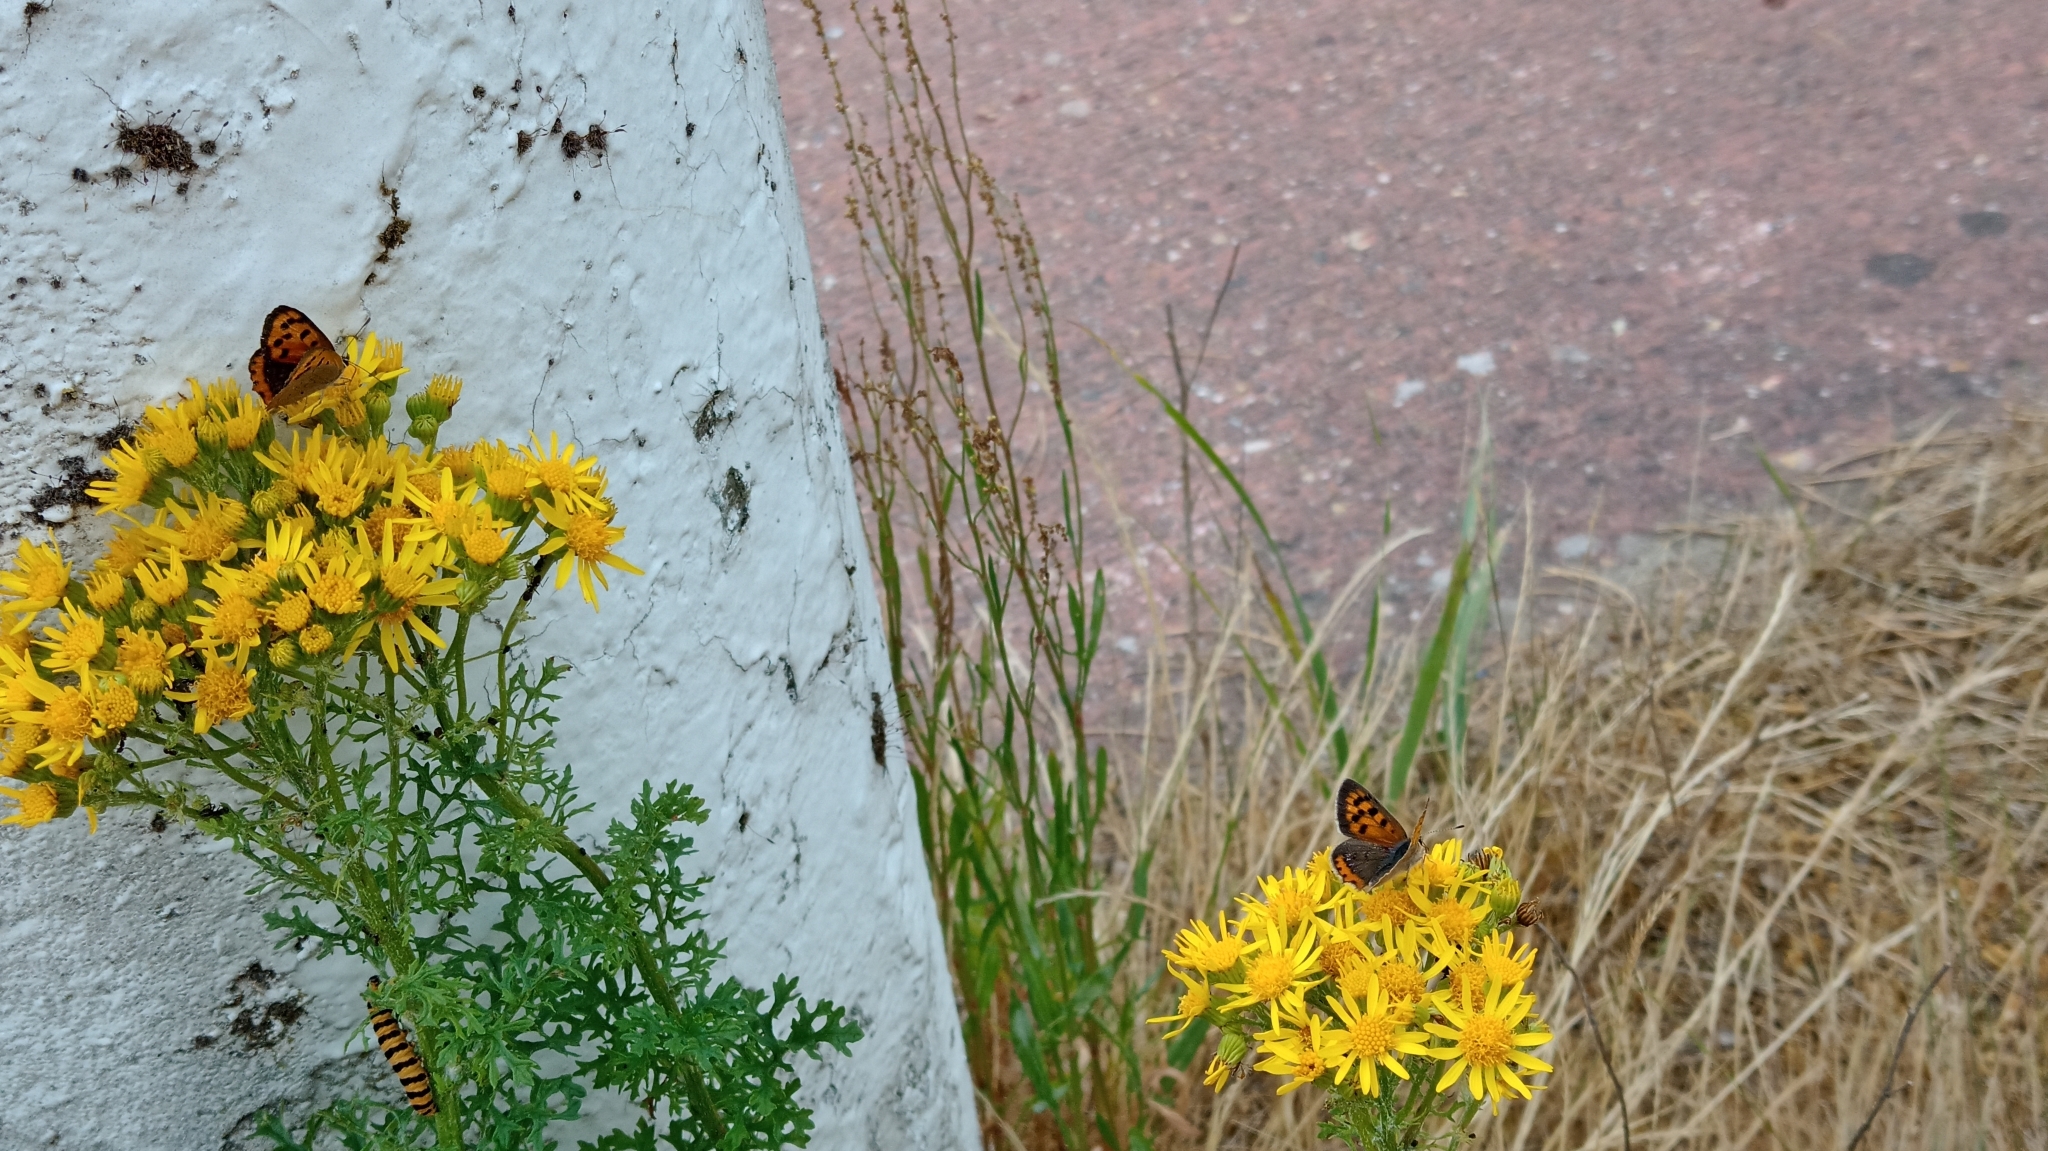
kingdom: Animalia
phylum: Arthropoda
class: Insecta
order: Lepidoptera
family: Lycaenidae
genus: Lycaena
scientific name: Lycaena phlaeas
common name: Small copper
